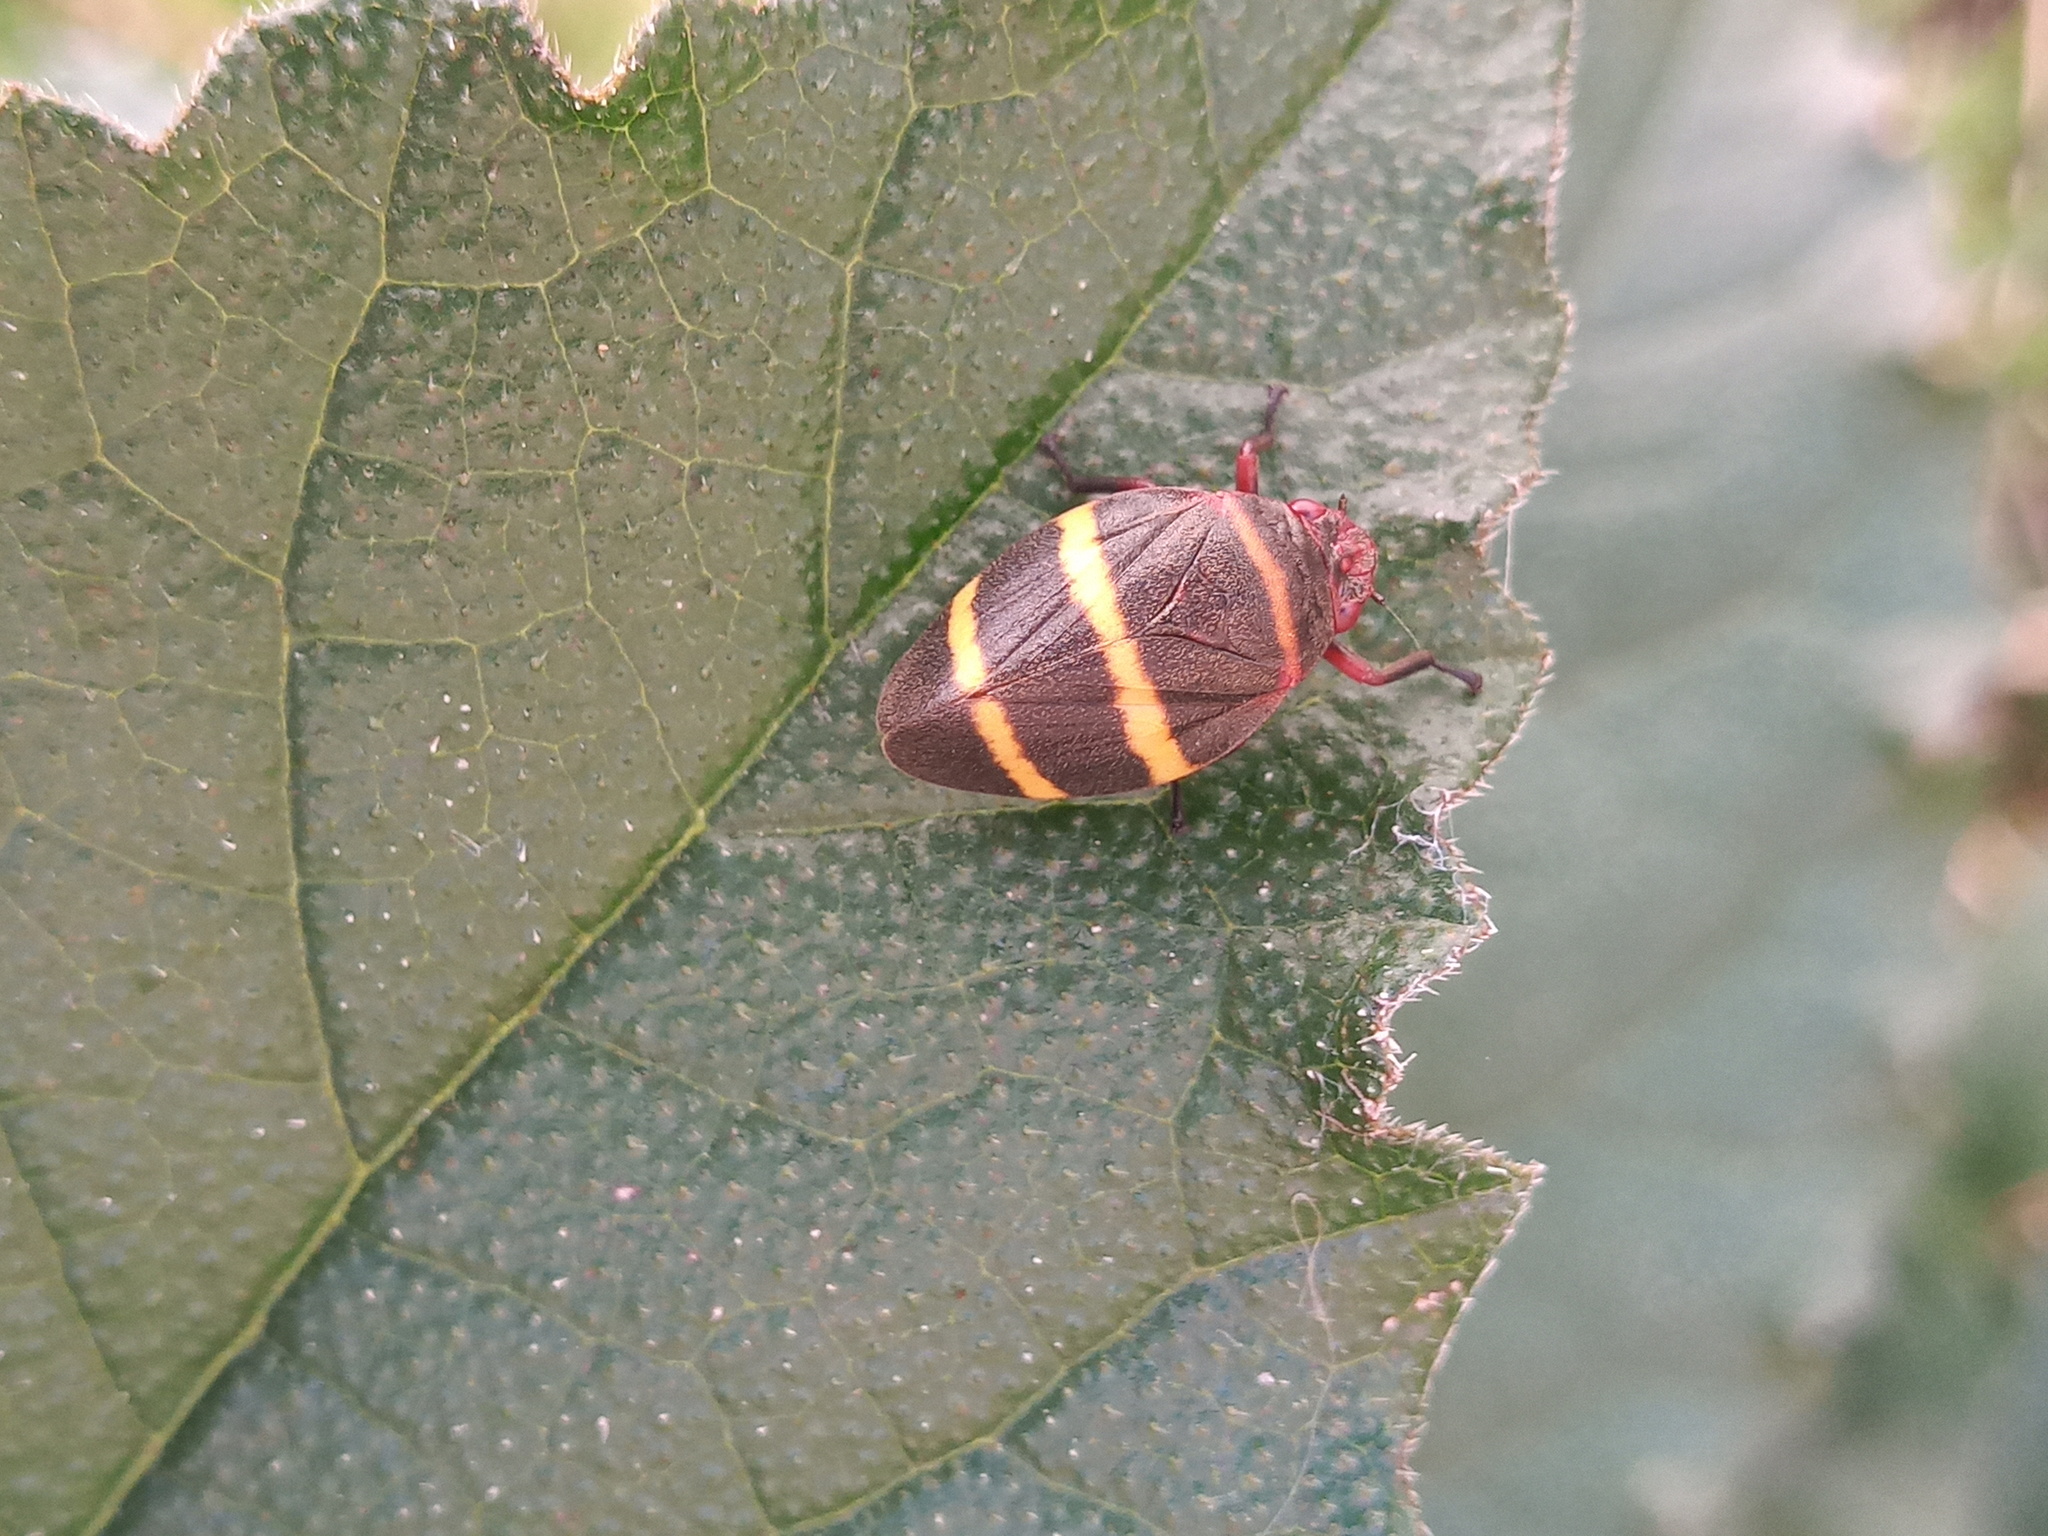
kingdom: Animalia
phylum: Arthropoda
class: Insecta
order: Hemiptera
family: Cercopidae
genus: Prosapia
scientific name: Prosapia simulans
